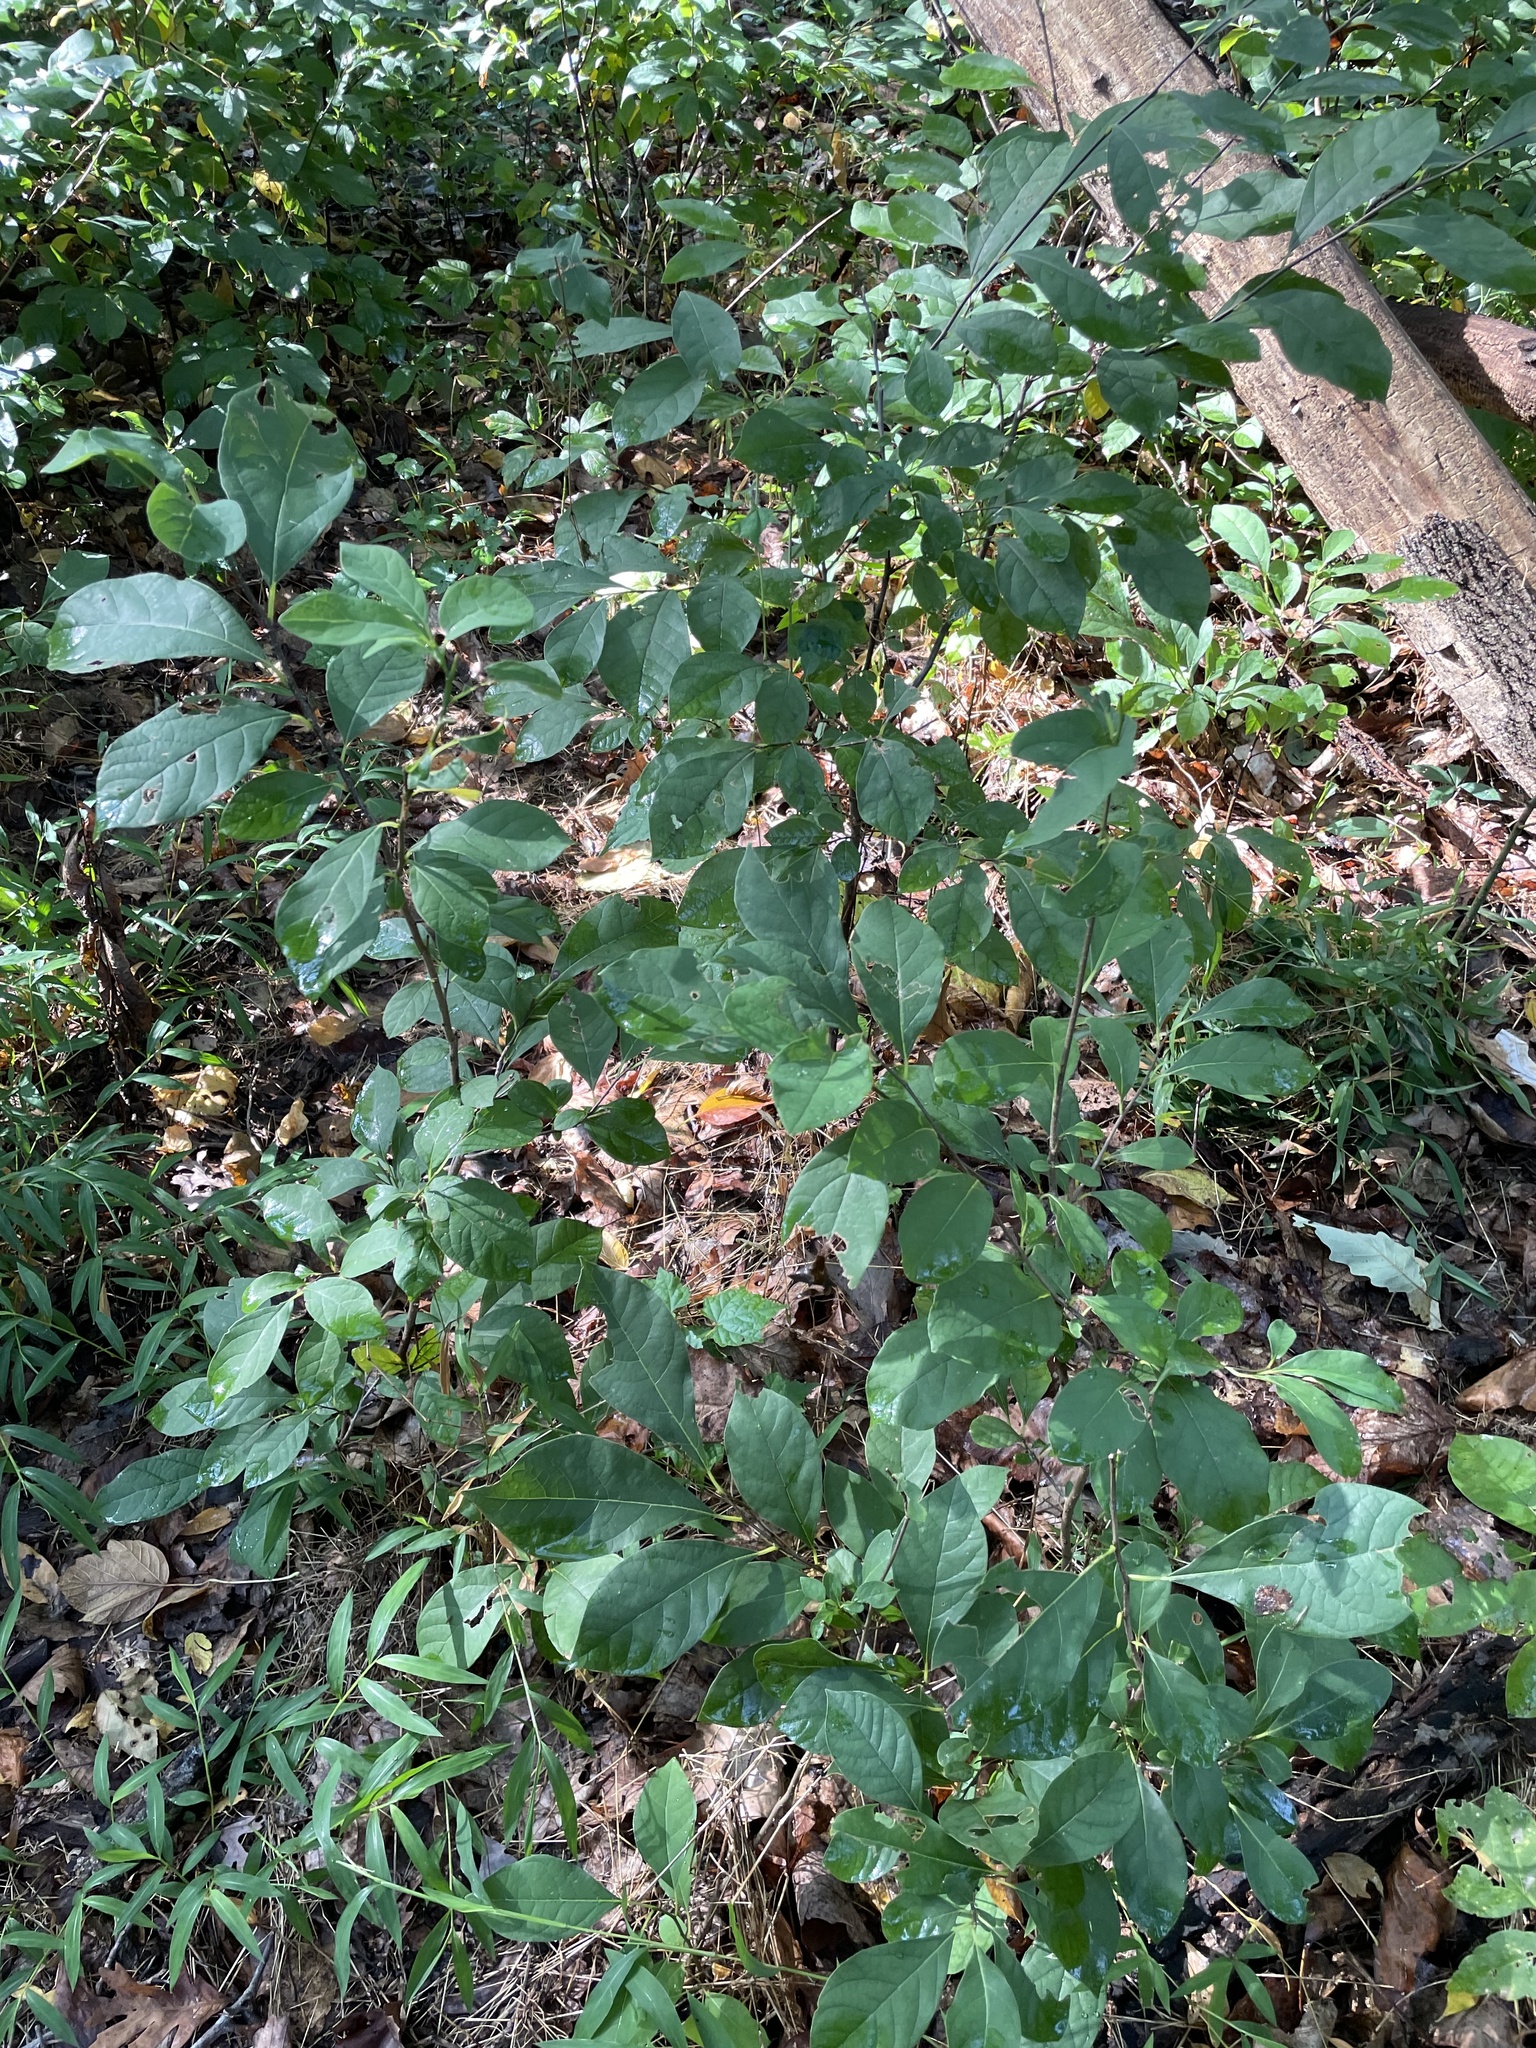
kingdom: Plantae
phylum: Tracheophyta
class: Magnoliopsida
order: Laurales
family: Lauraceae
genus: Lindera
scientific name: Lindera benzoin
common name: Spicebush
